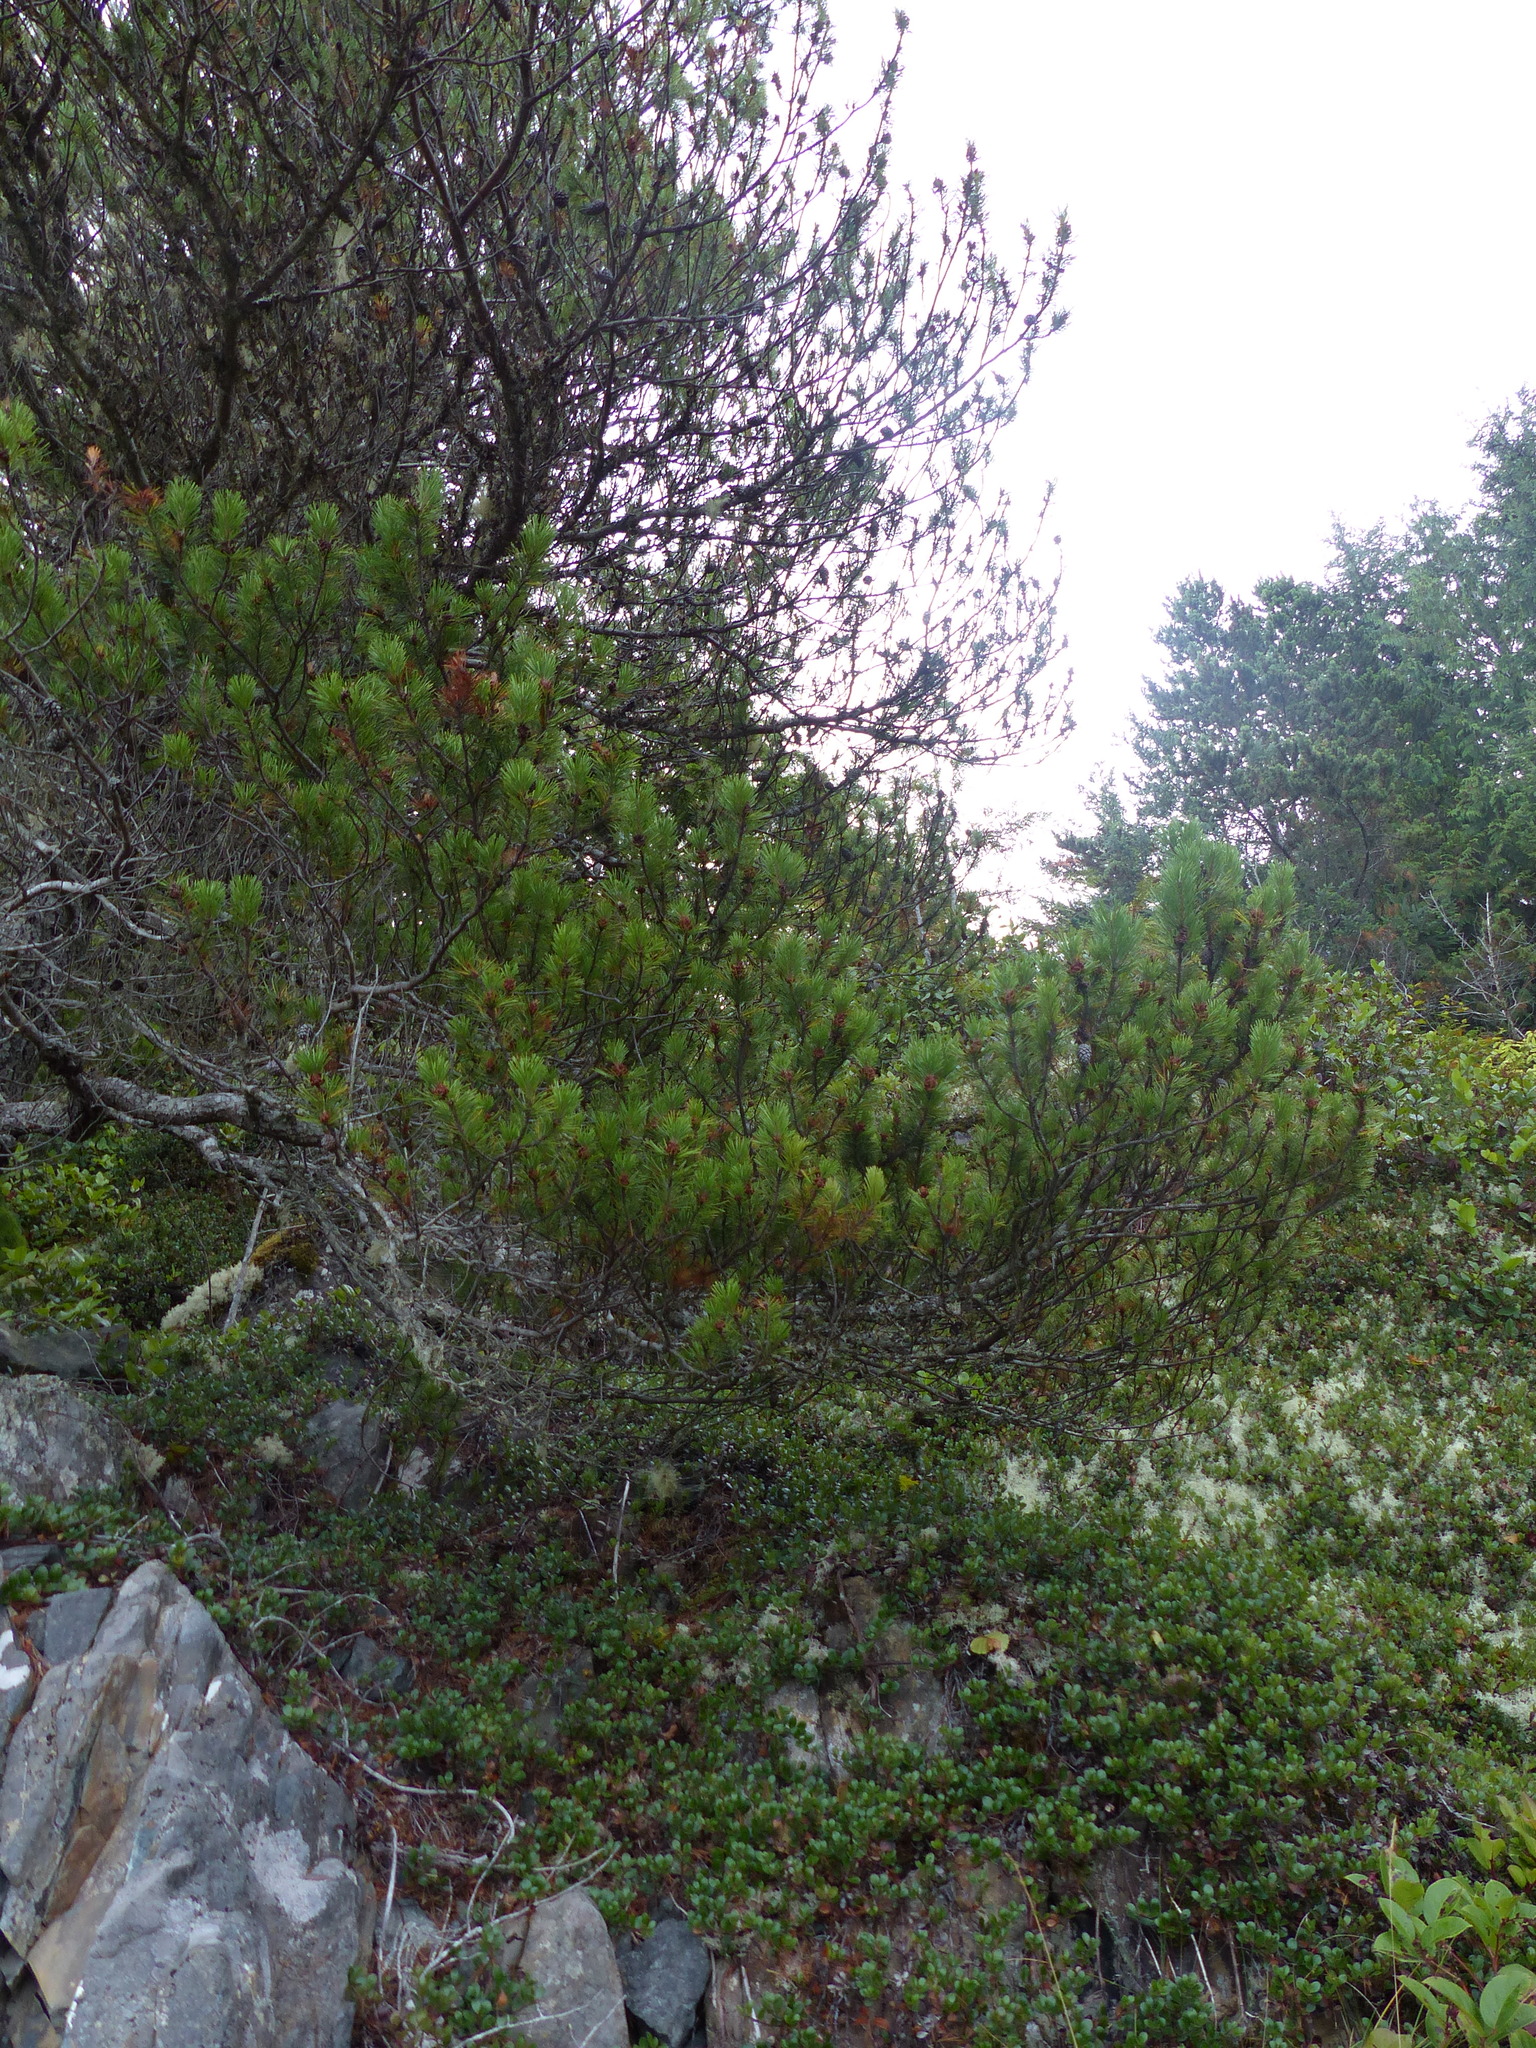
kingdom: Plantae
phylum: Tracheophyta
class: Pinopsida
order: Pinales
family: Pinaceae
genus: Pinus
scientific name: Pinus contorta
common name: Lodgepole pine
